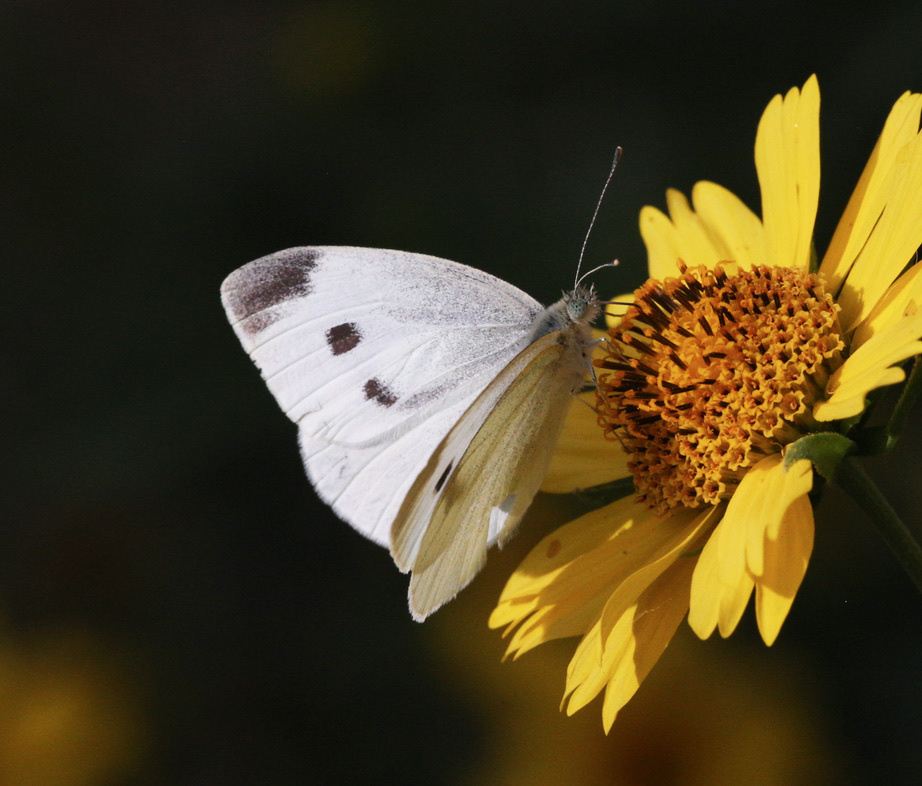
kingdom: Animalia
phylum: Arthropoda
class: Insecta
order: Lepidoptera
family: Pieridae
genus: Pieris
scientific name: Pieris rapae
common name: Small white
